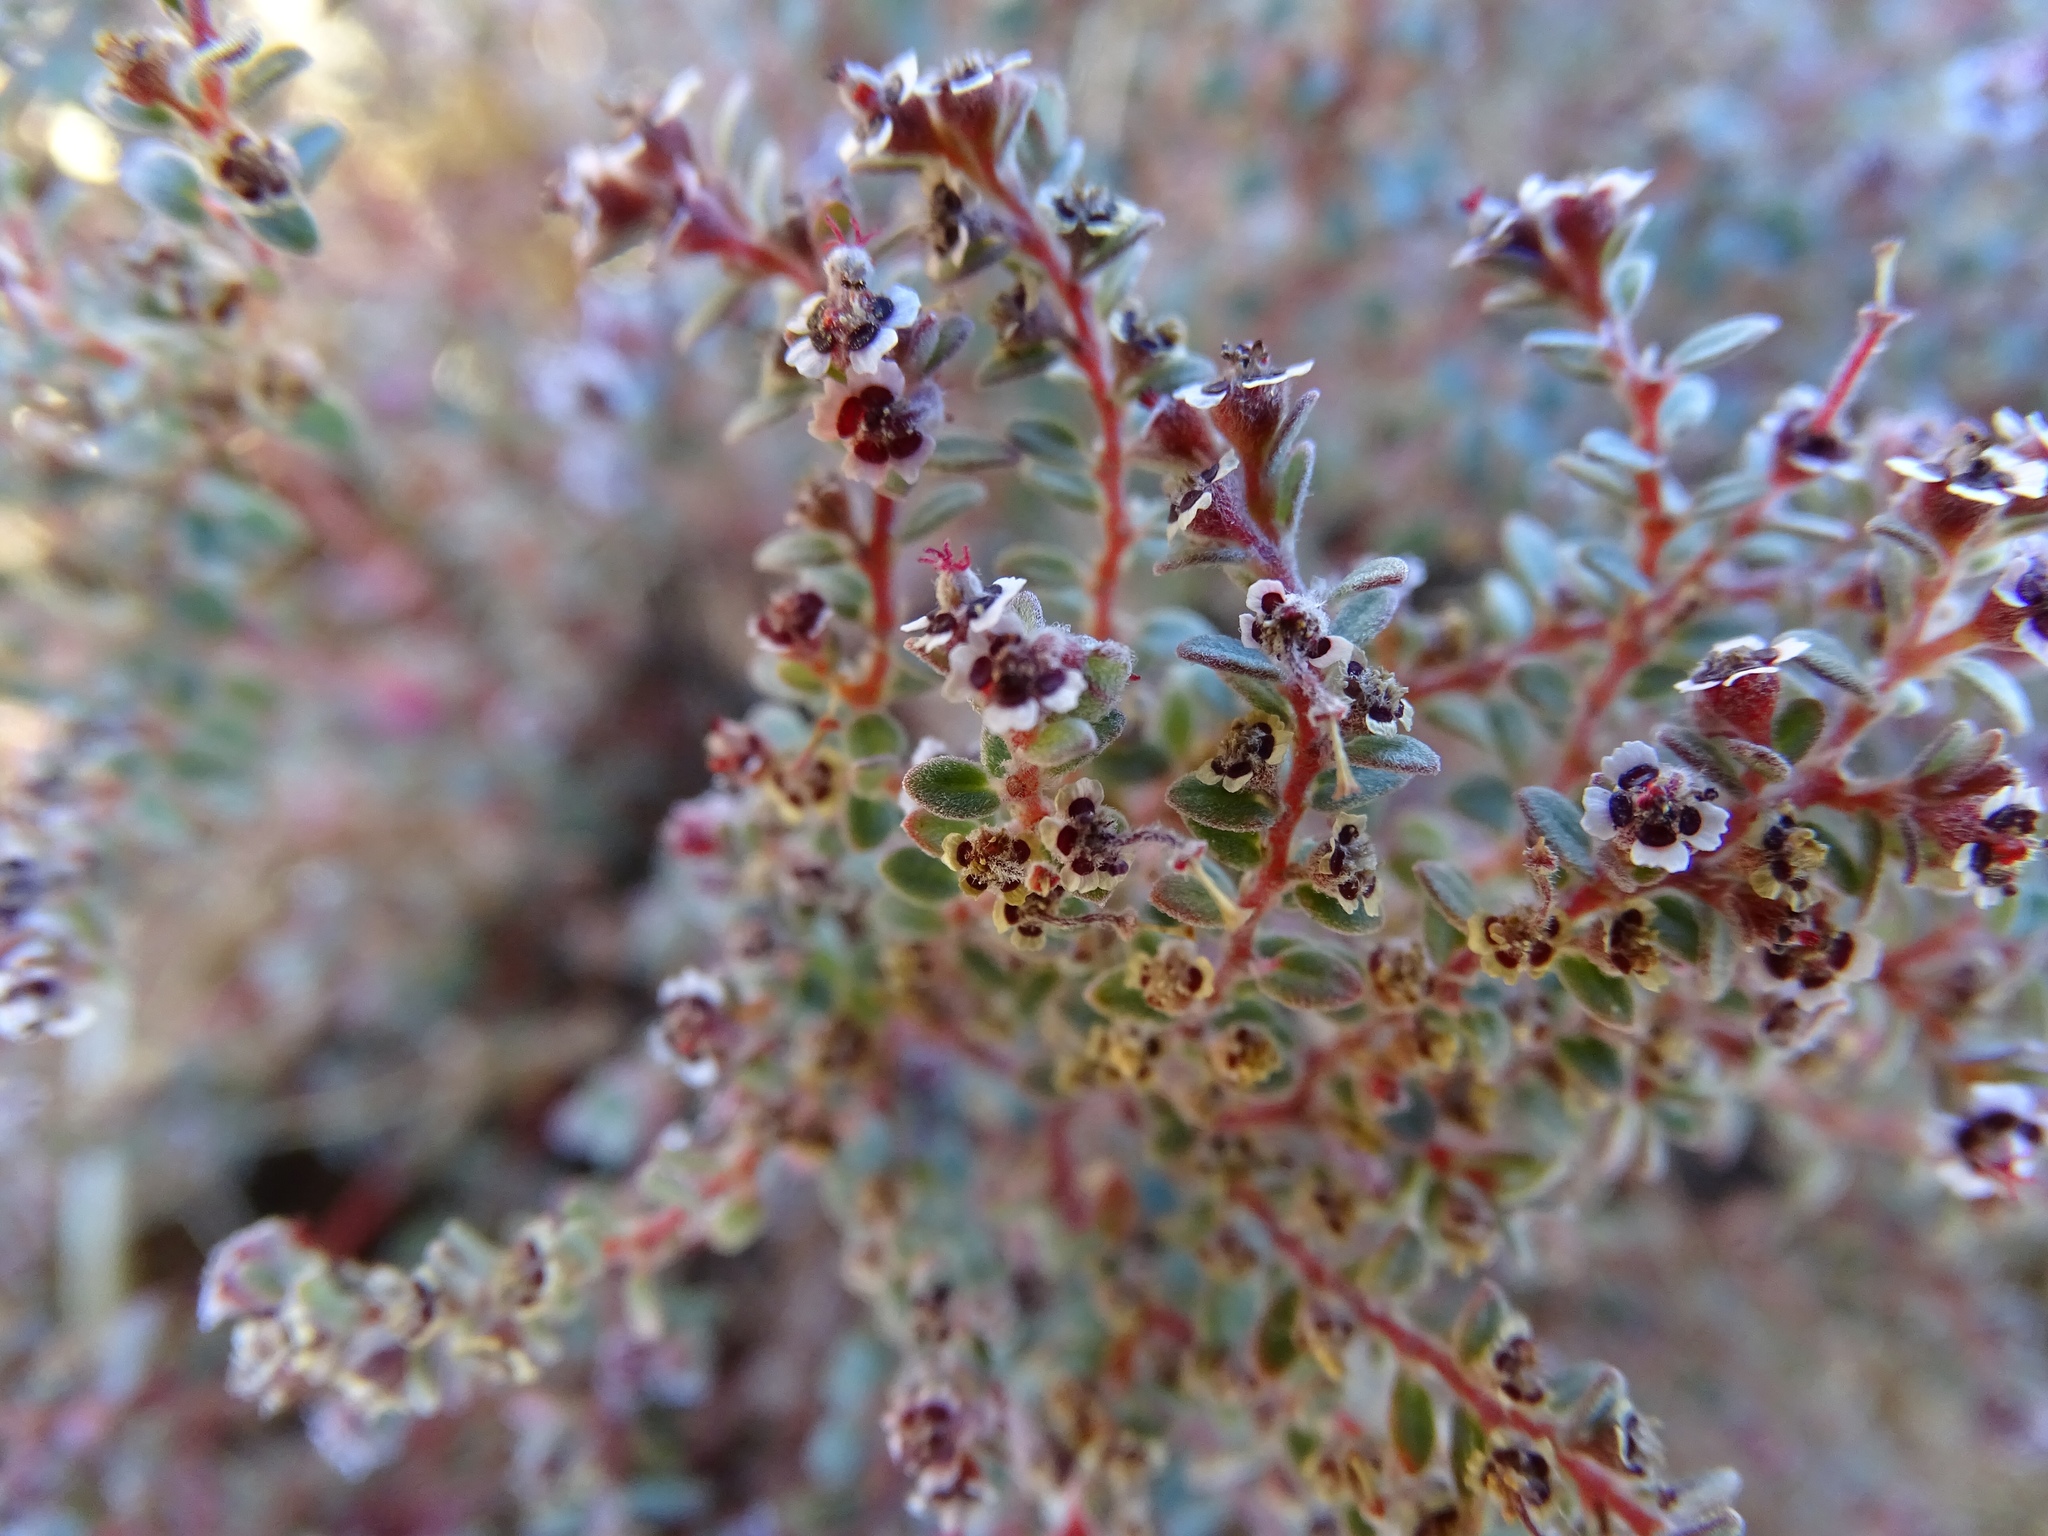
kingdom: Plantae
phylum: Tracheophyta
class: Magnoliopsida
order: Malpighiales
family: Euphorbiaceae
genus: Euphorbia
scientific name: Euphorbia melanadenia
